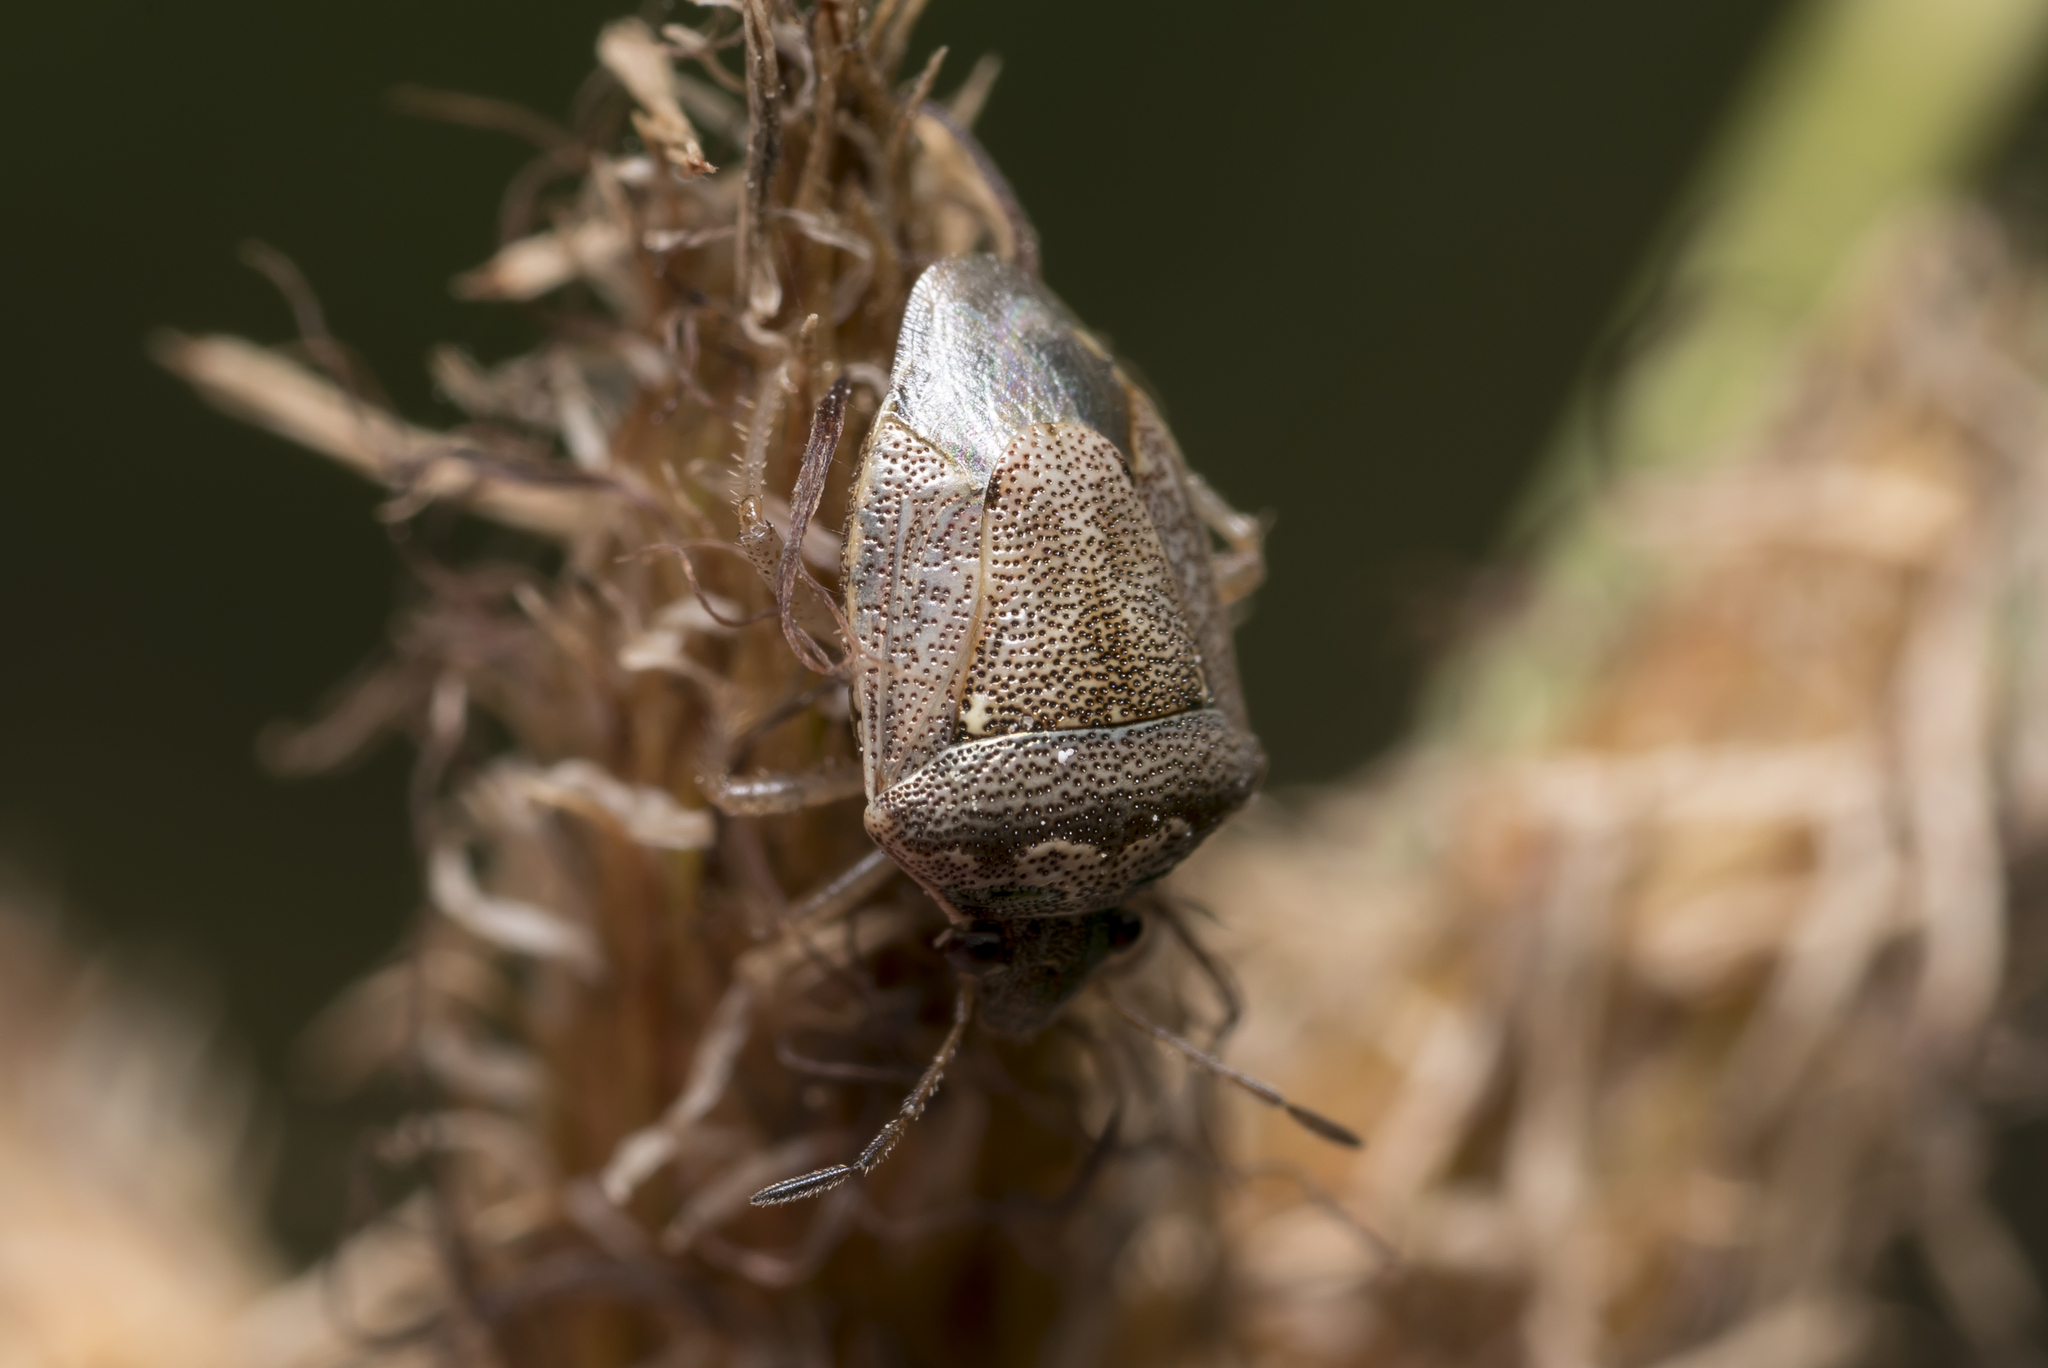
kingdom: Animalia
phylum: Arthropoda
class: Insecta
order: Hemiptera
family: Pentatomidae
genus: Eysarcoris
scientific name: Eysarcoris ventralis
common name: White-spotted stink bug
